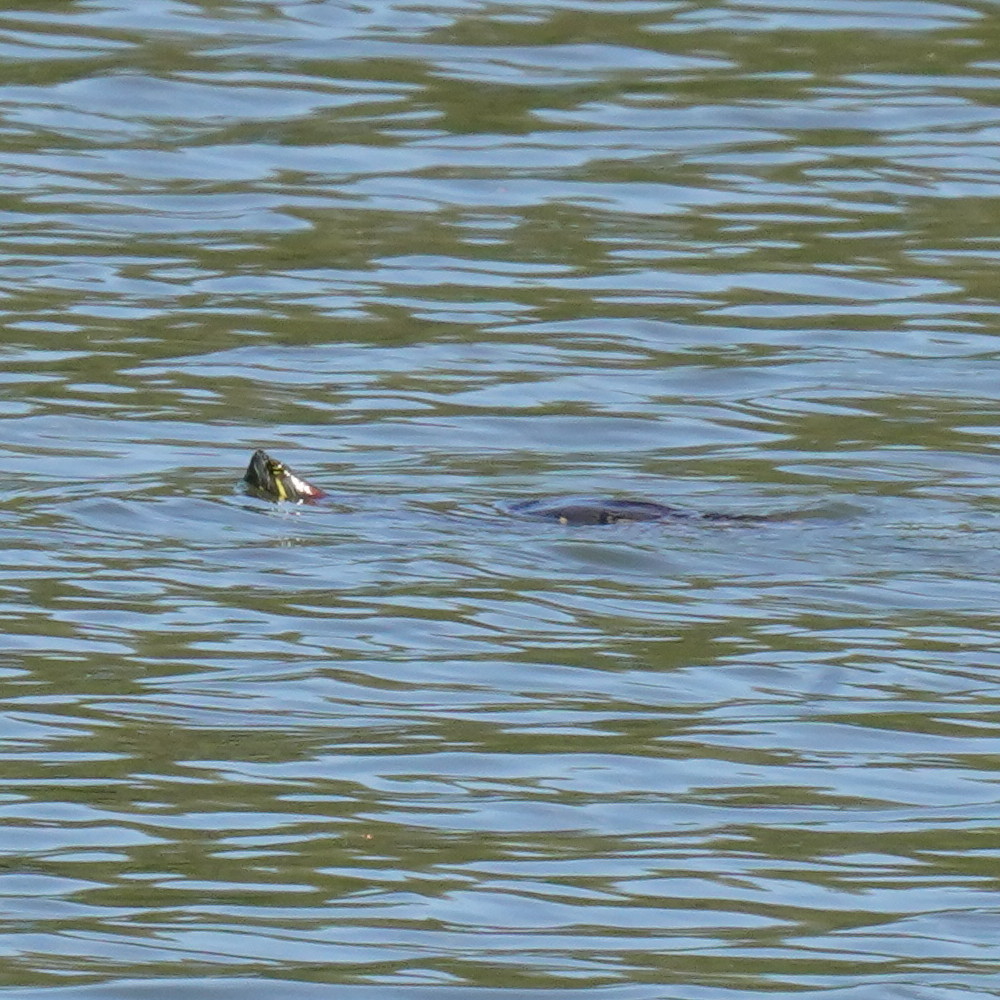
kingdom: Animalia
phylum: Chordata
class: Testudines
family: Emydidae
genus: Trachemys
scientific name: Trachemys scripta
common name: Slider
